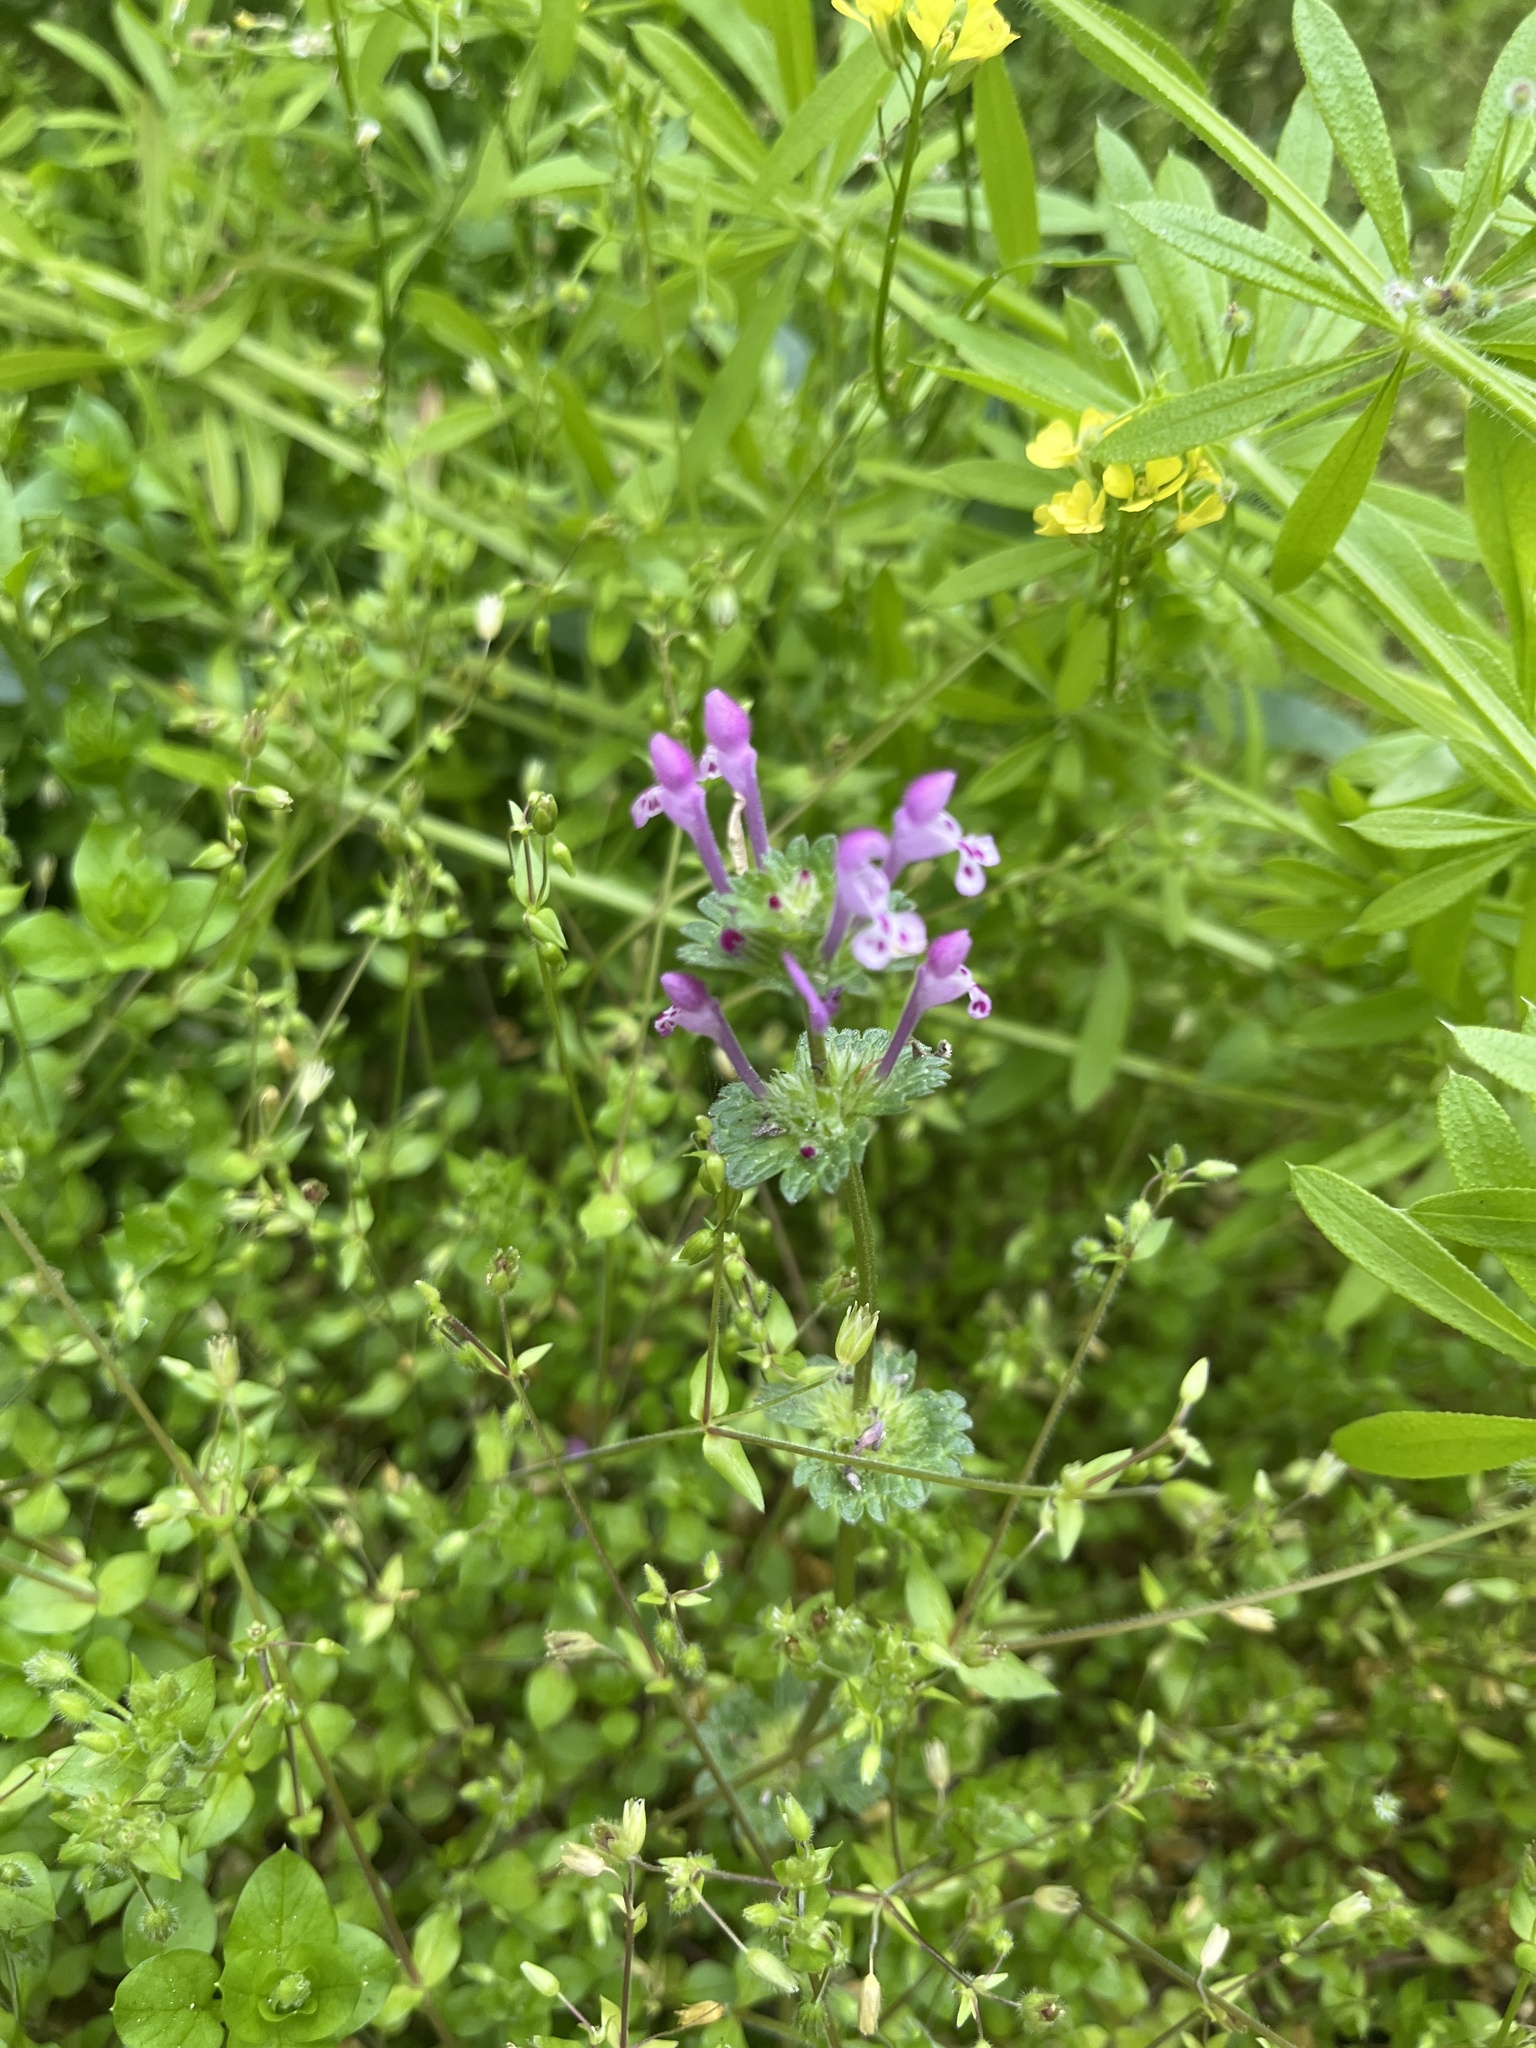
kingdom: Plantae
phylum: Tracheophyta
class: Magnoliopsida
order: Lamiales
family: Lamiaceae
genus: Lamium
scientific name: Lamium amplexicaule
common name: Henbit dead-nettle
